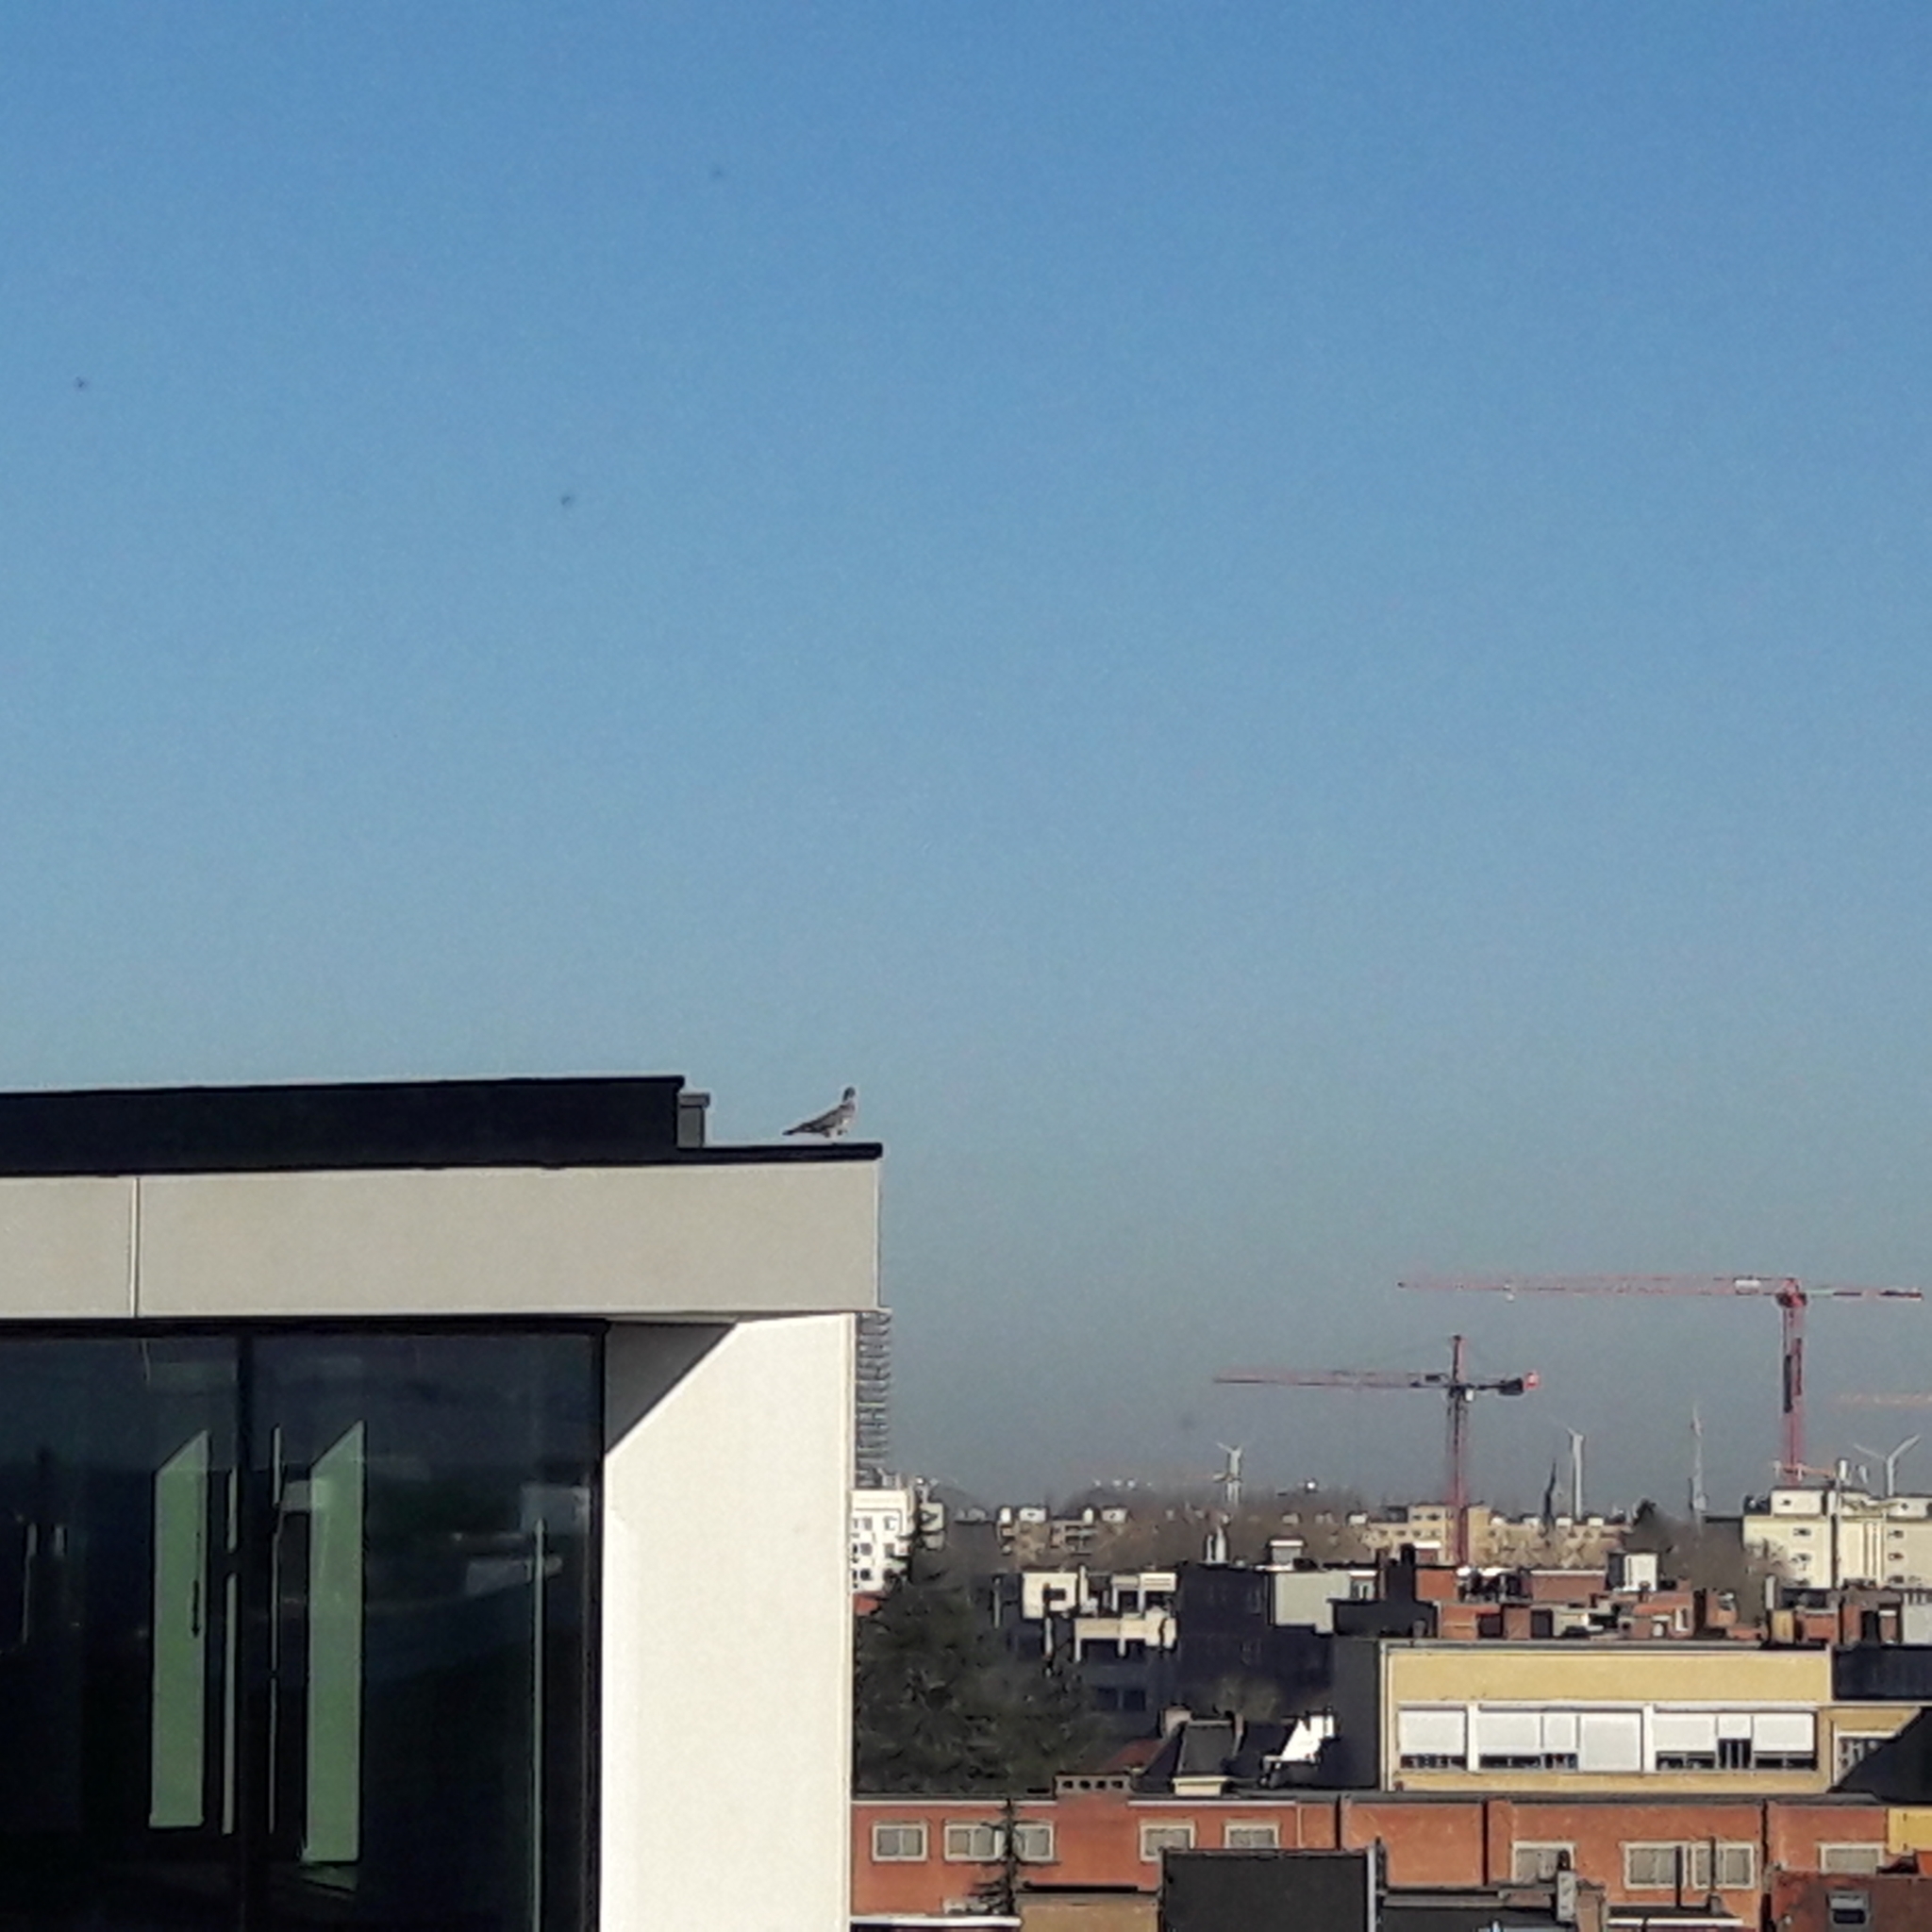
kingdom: Animalia
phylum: Chordata
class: Aves
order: Columbiformes
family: Columbidae
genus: Columba
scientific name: Columba palumbus
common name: Common wood pigeon
